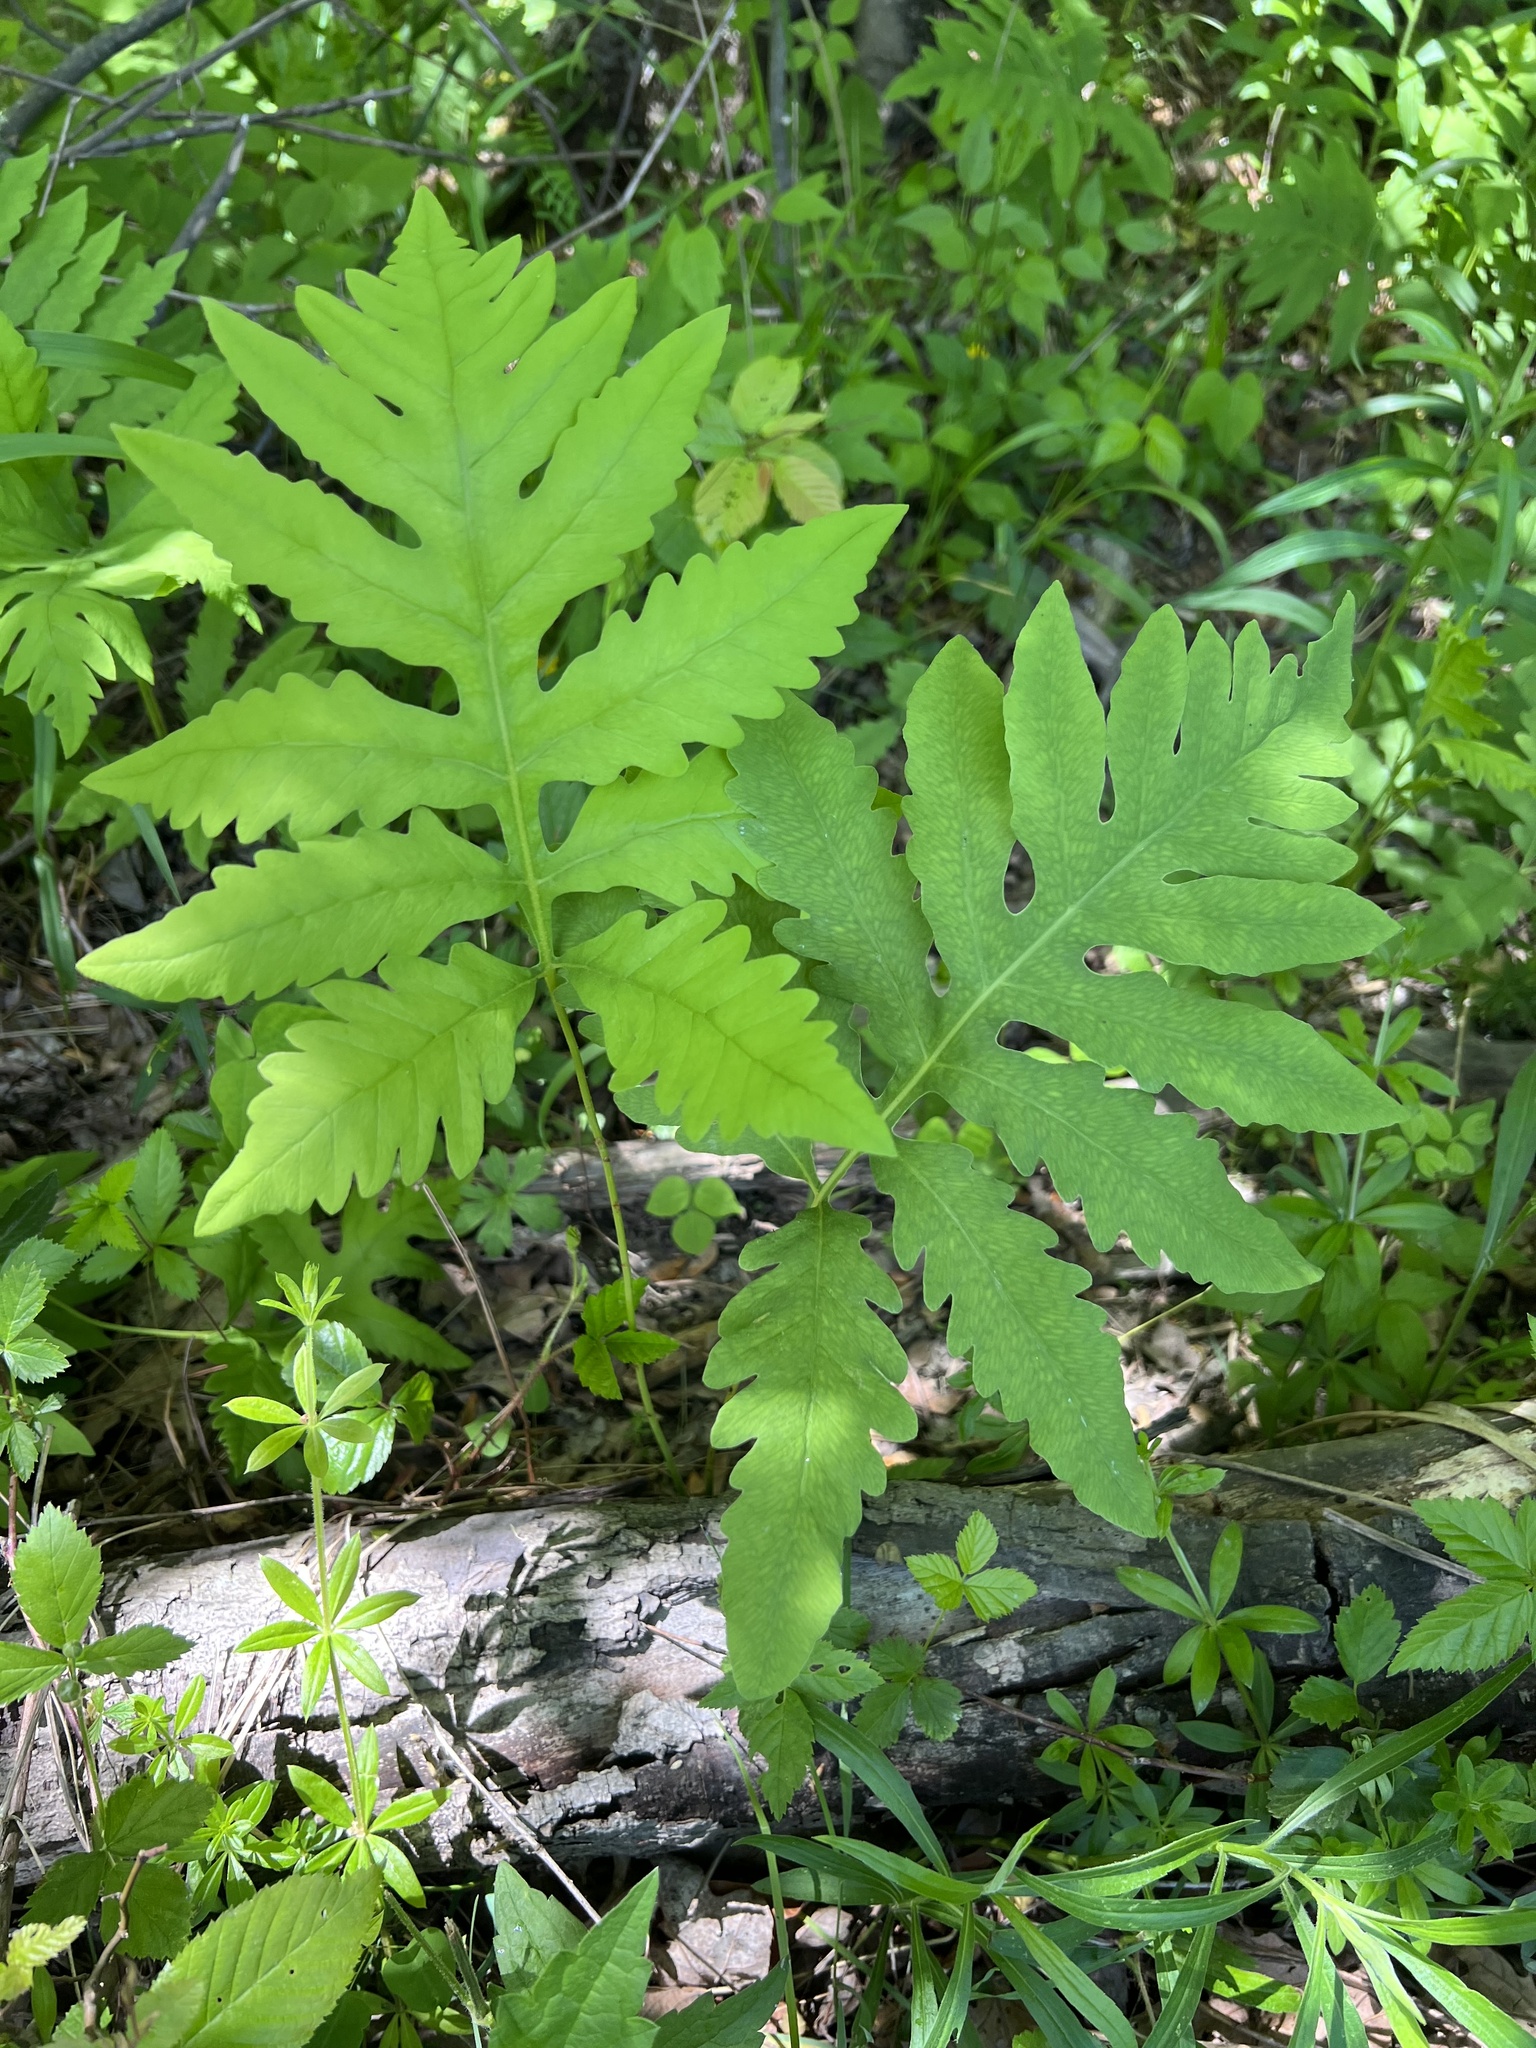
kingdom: Plantae
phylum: Tracheophyta
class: Polypodiopsida
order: Polypodiales
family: Onocleaceae
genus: Onoclea
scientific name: Onoclea sensibilis
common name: Sensitive fern
